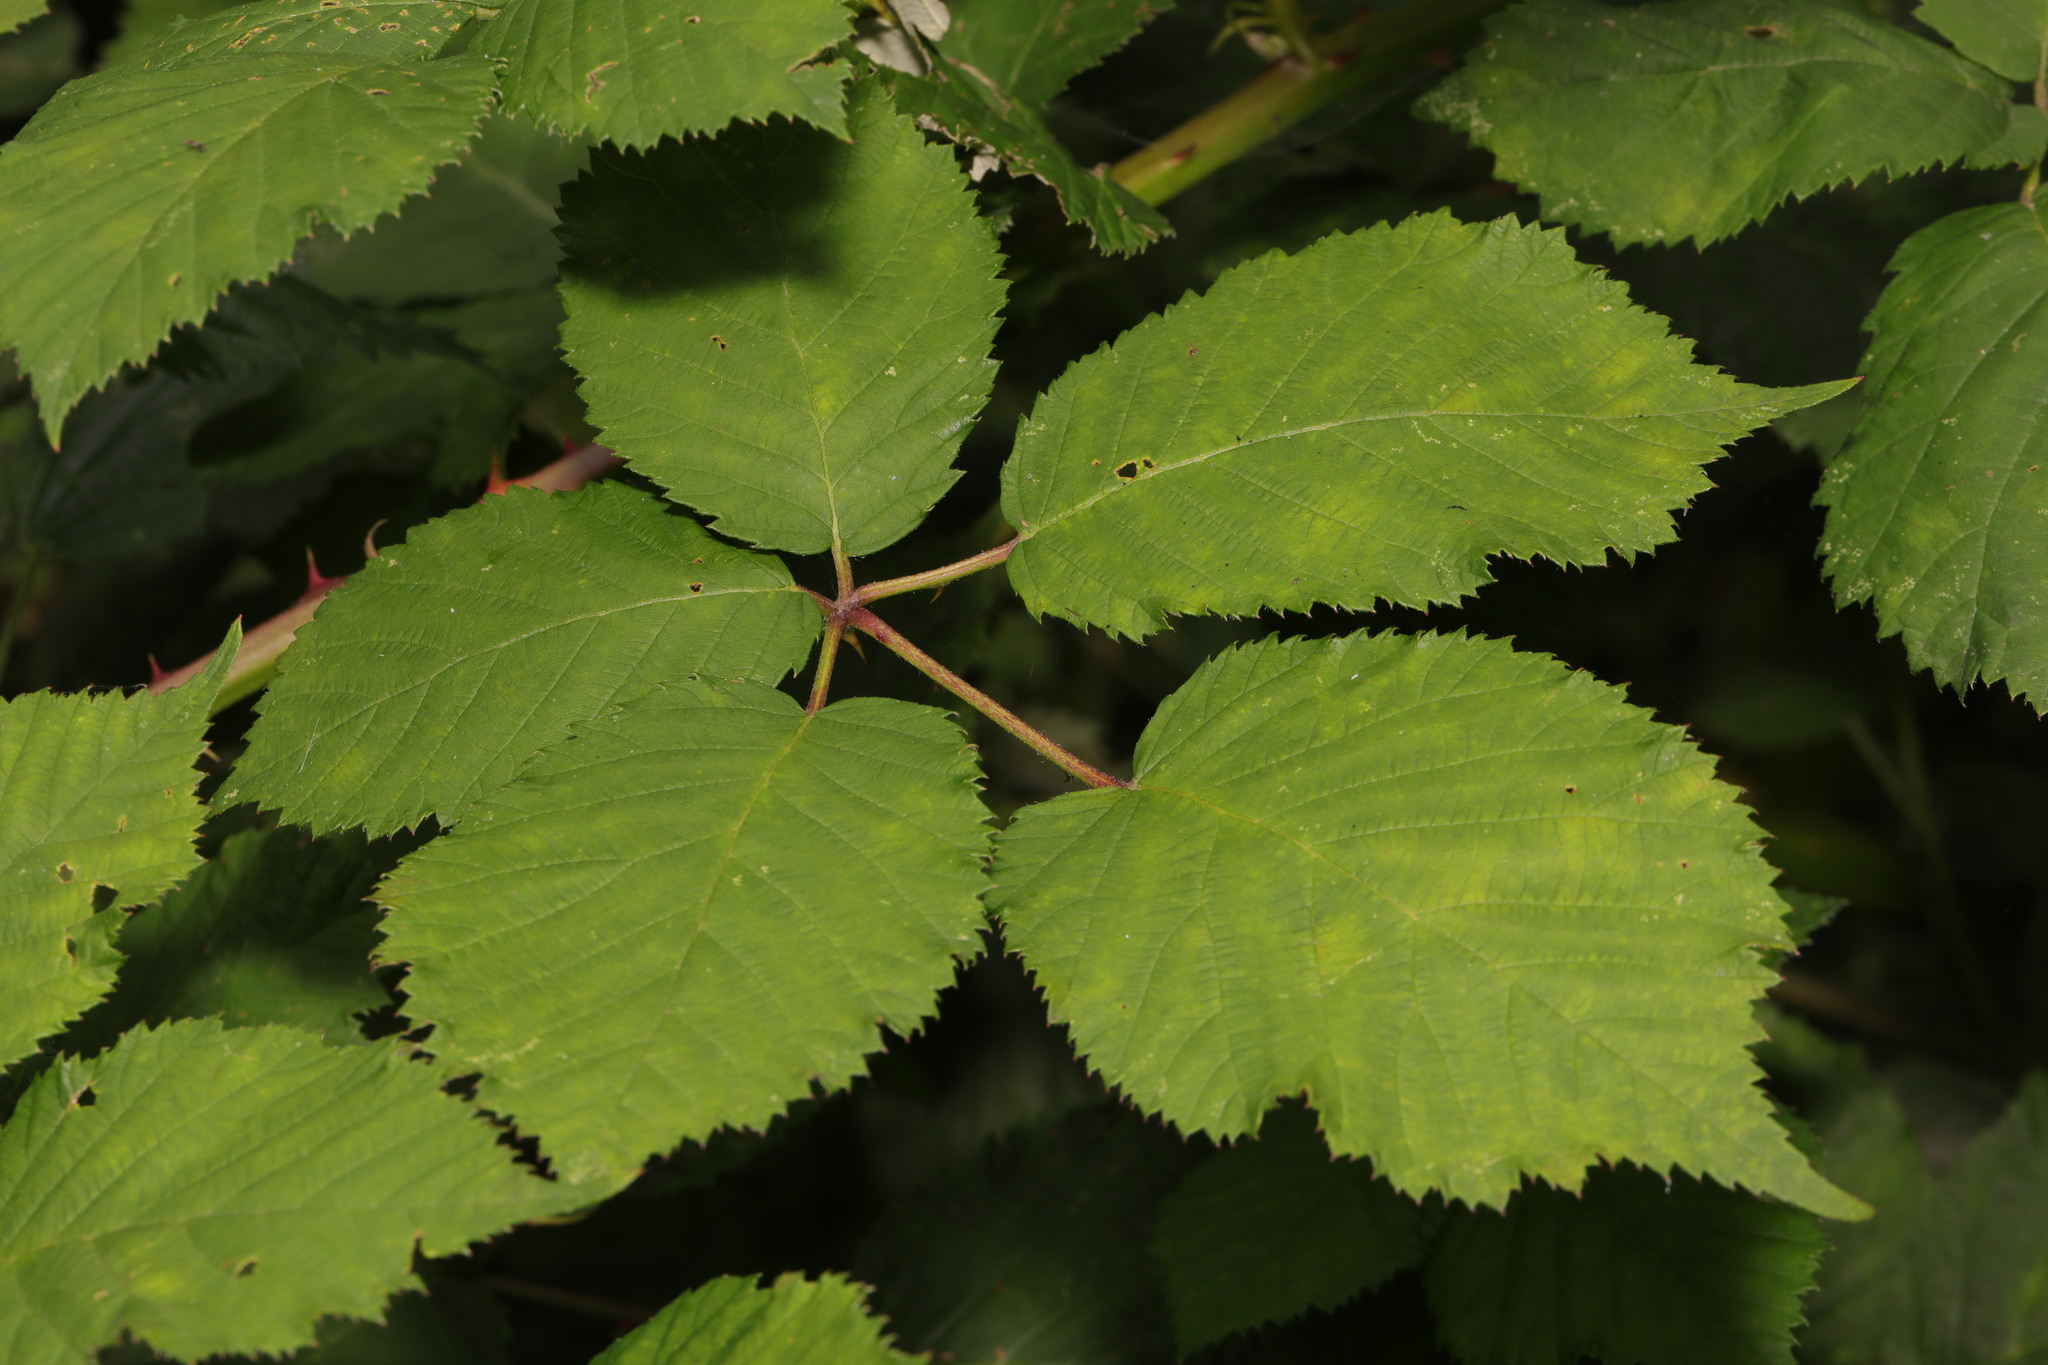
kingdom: Plantae
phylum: Tracheophyta
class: Magnoliopsida
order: Rosales
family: Rosaceae
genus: Rubus
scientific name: Rubus armeniacus
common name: Himalayan blackberry
